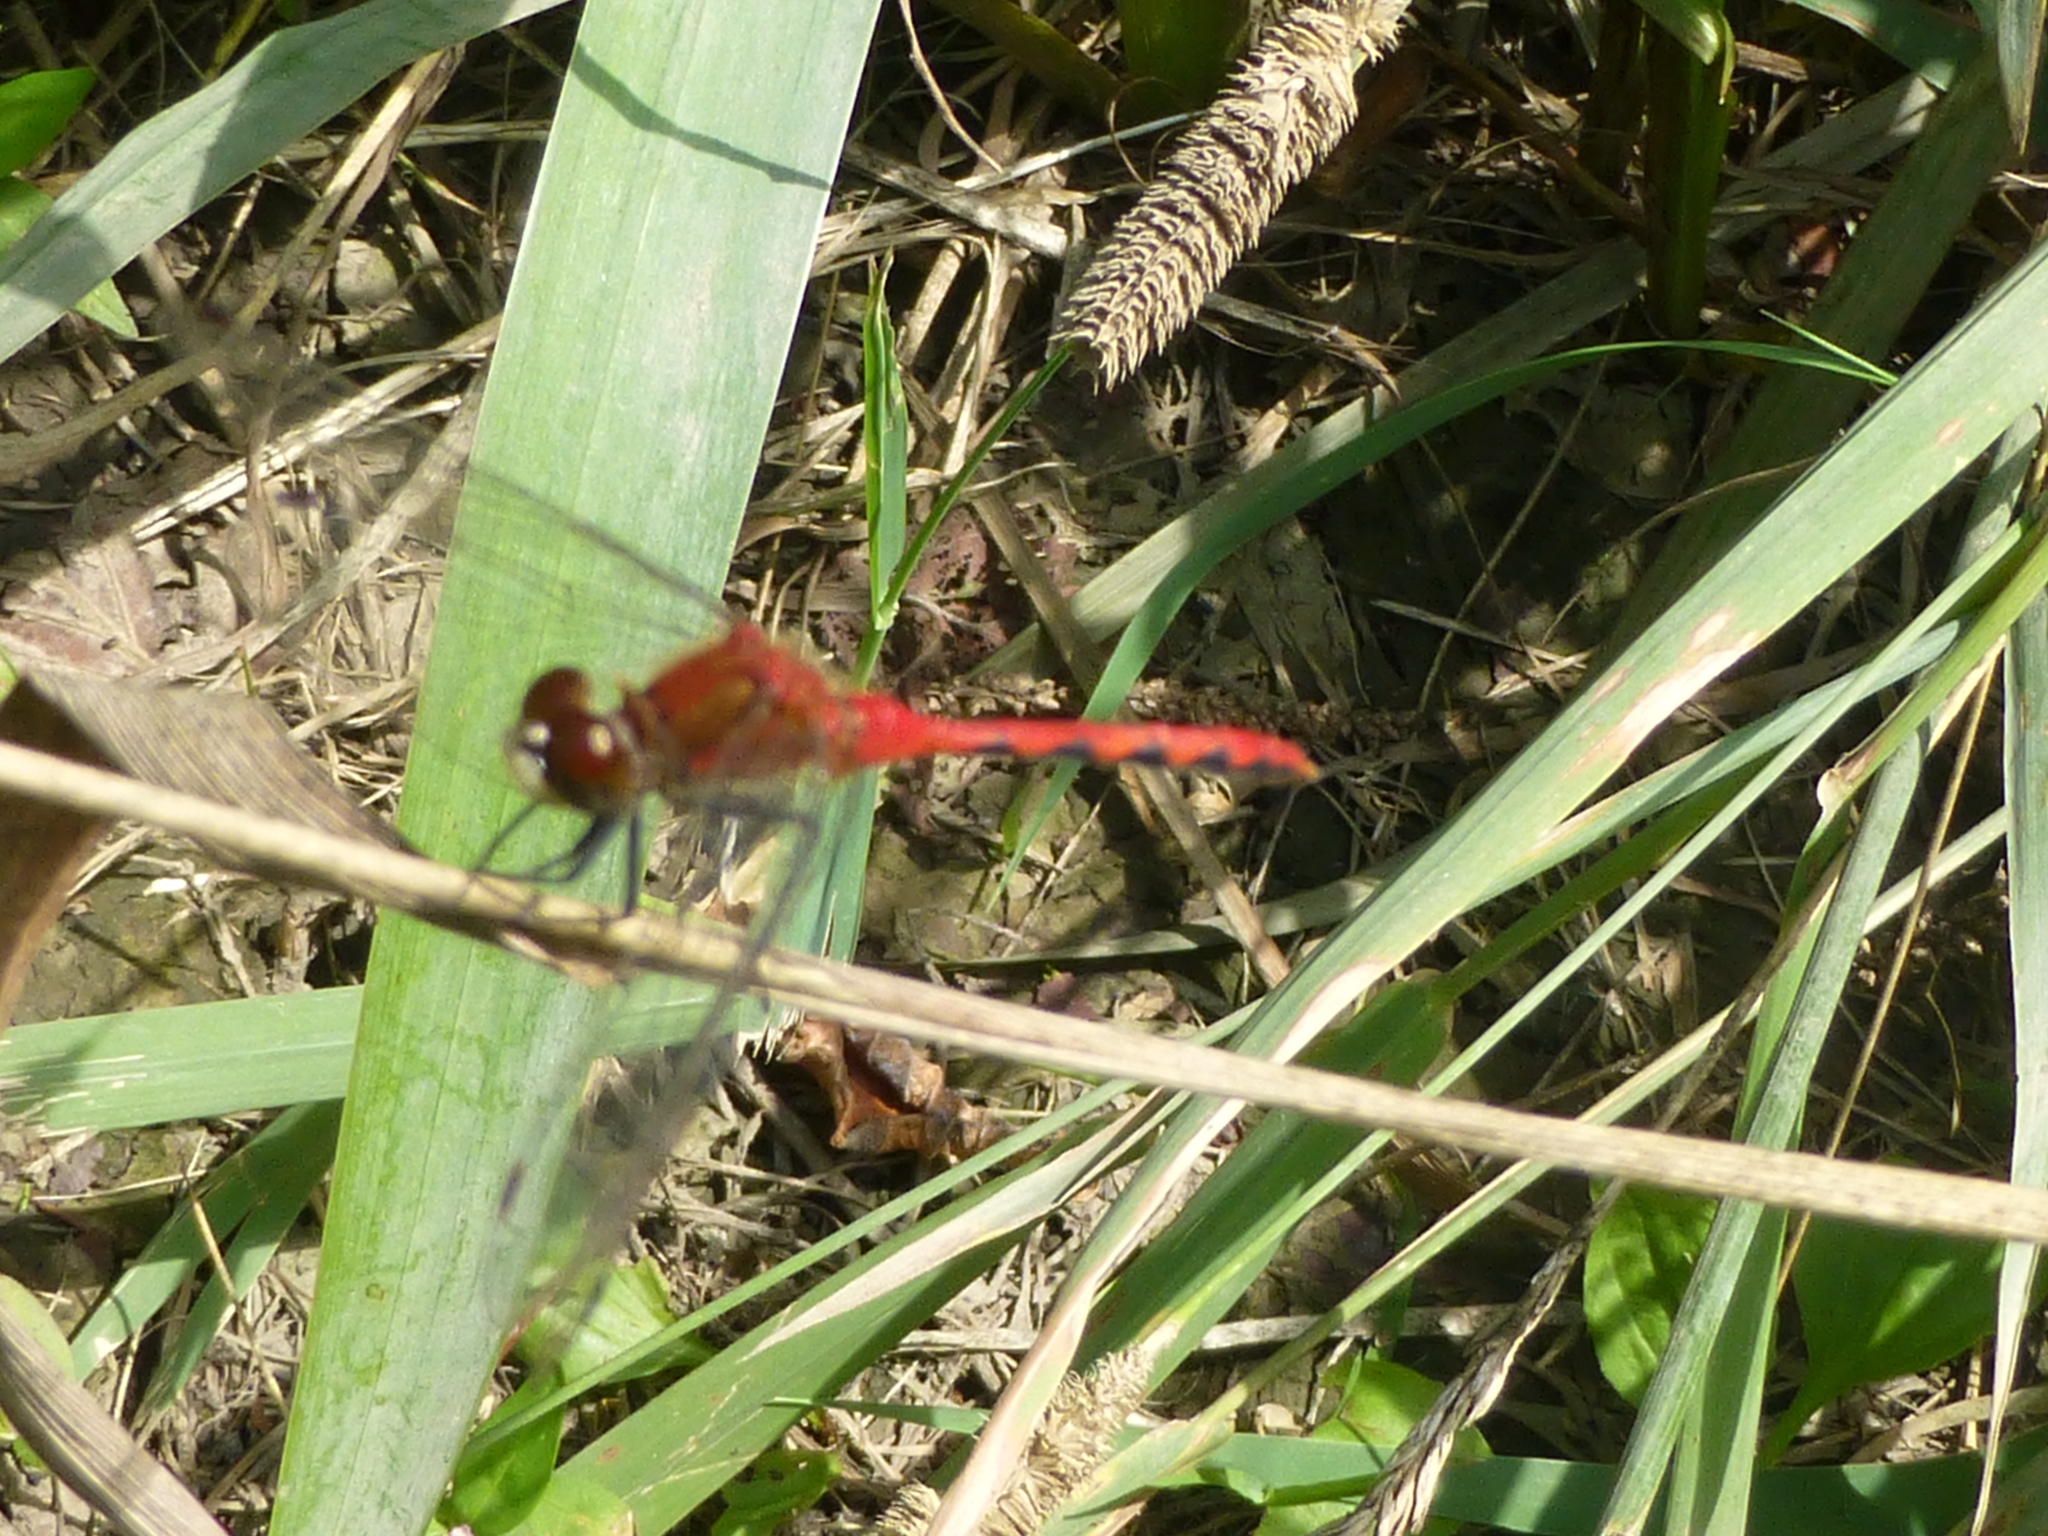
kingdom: Animalia
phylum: Arthropoda
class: Insecta
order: Odonata
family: Libellulidae
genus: Sympetrum
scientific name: Sympetrum obtrusum
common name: White-faced meadowhawk
